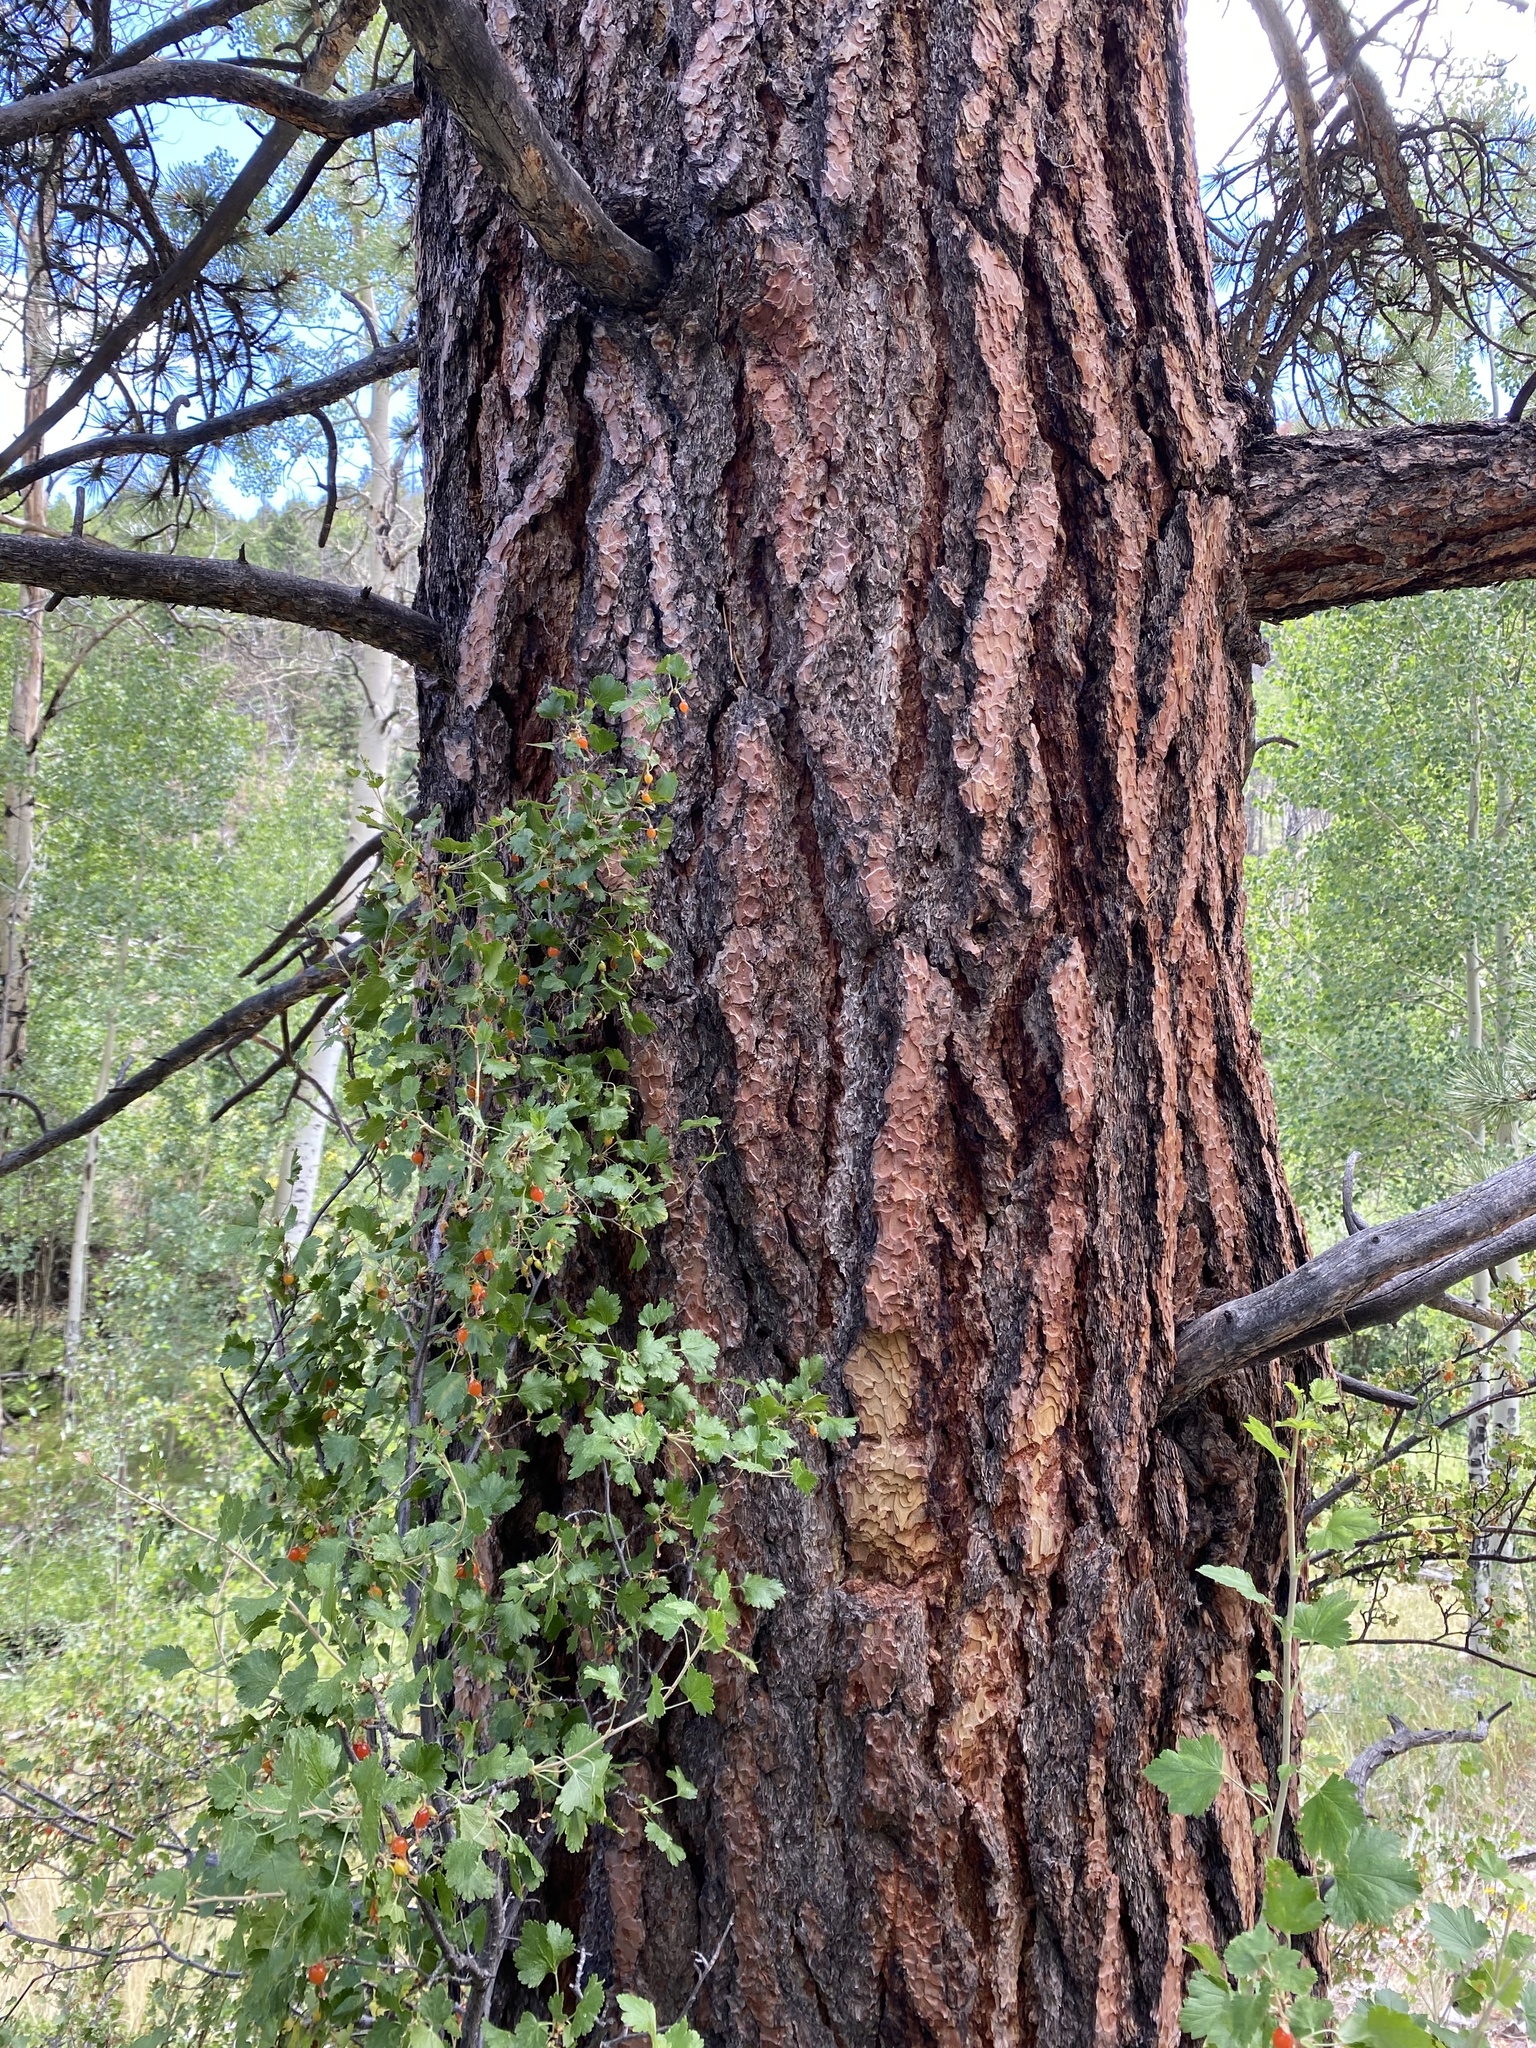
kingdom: Plantae
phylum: Tracheophyta
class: Pinopsida
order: Pinales
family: Pinaceae
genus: Pinus
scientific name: Pinus ponderosa
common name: Western yellow-pine
